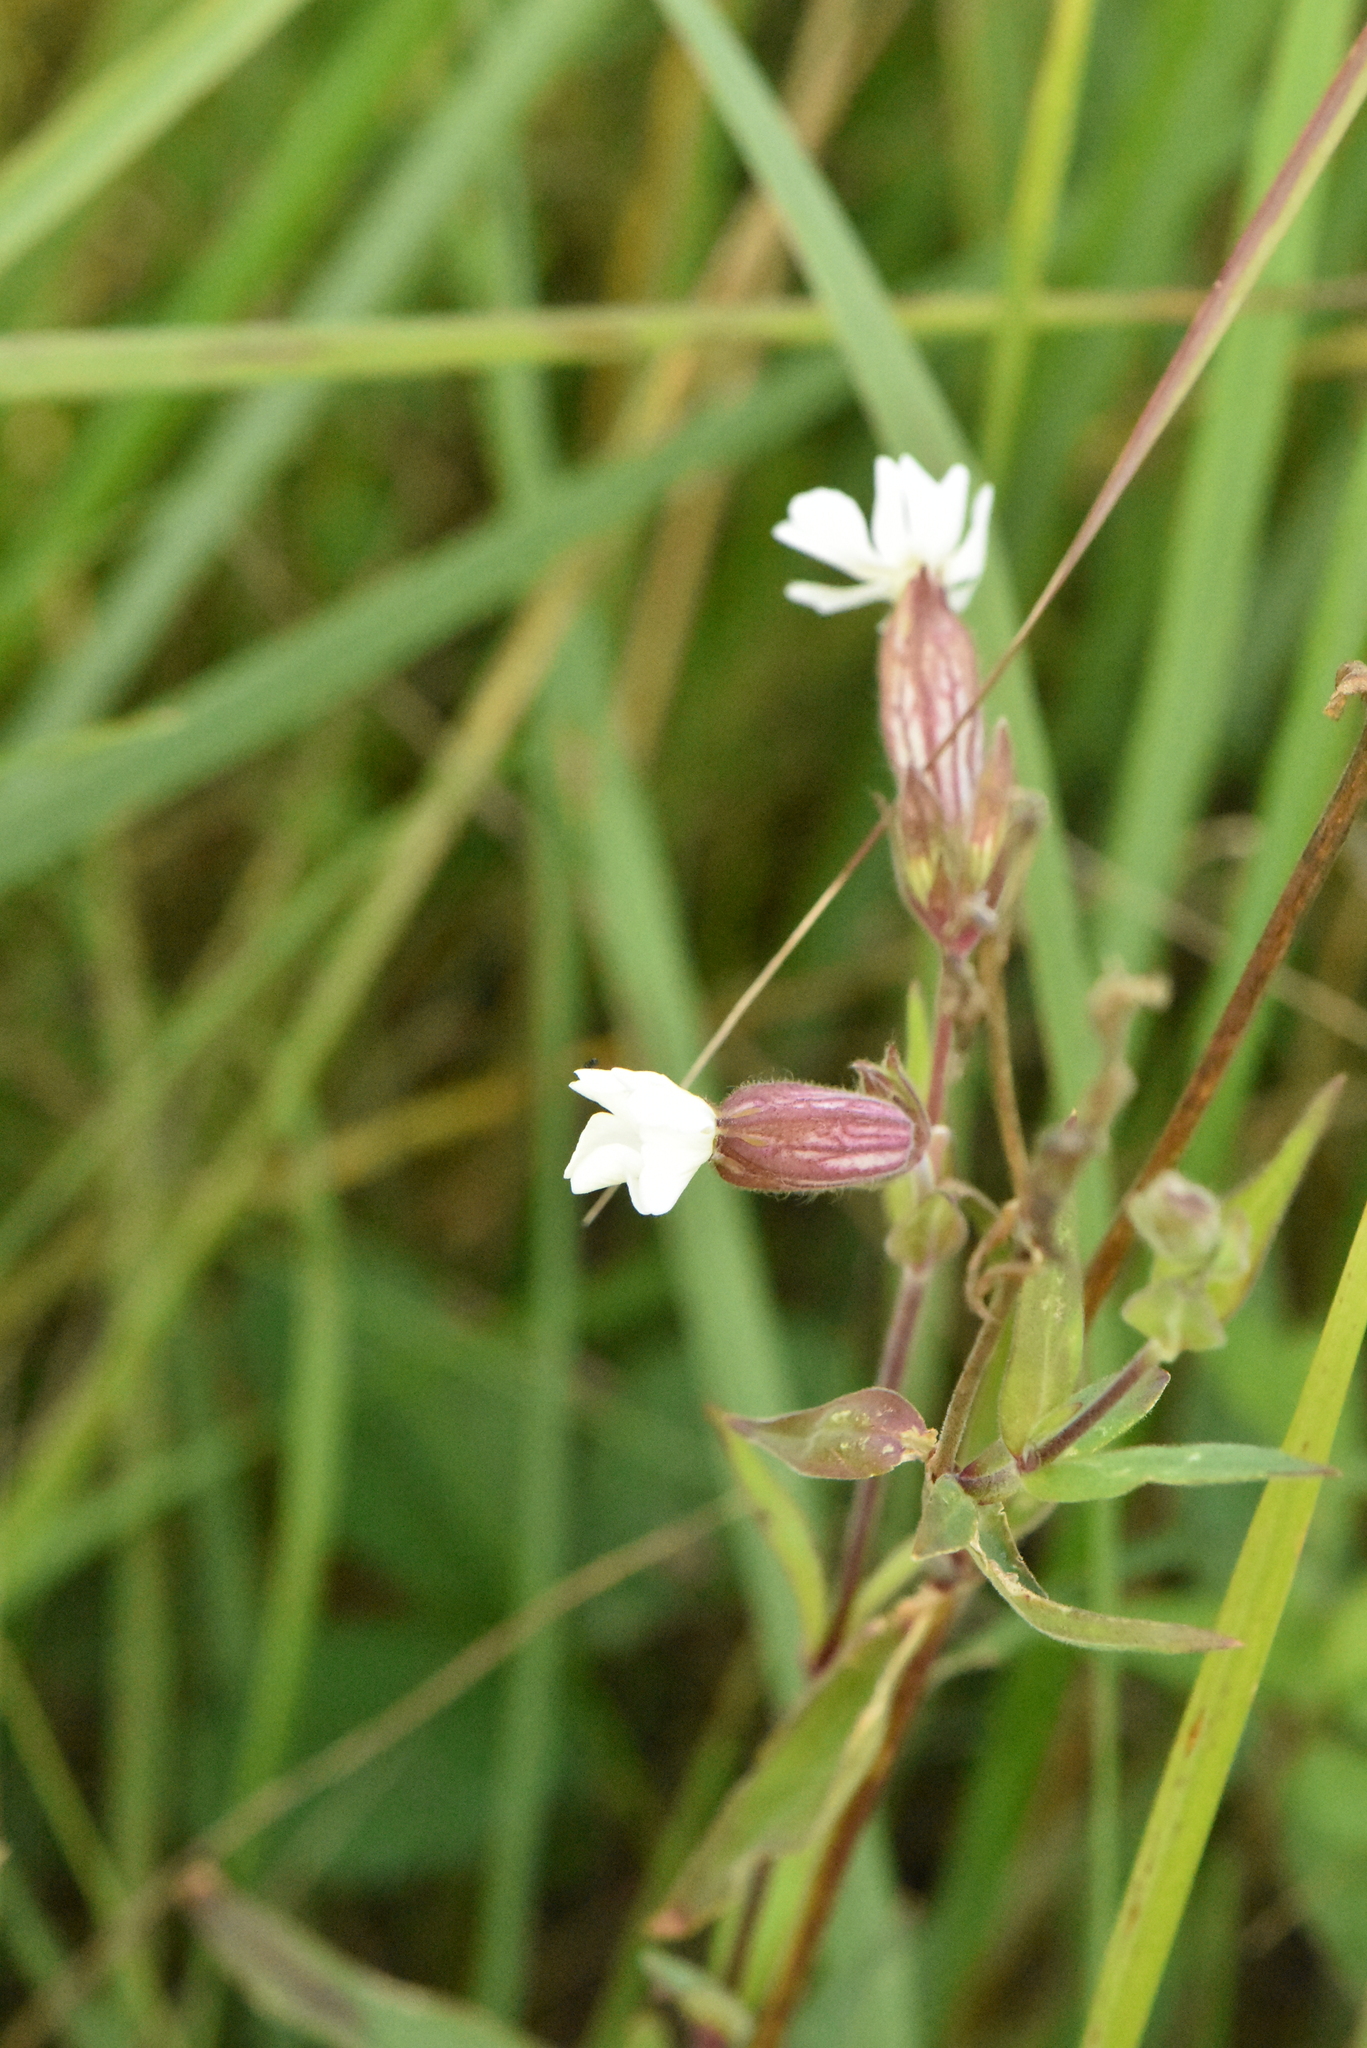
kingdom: Plantae
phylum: Tracheophyta
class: Magnoliopsida
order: Caryophyllales
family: Caryophyllaceae
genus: Silene
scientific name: Silene latifolia
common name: White campion
